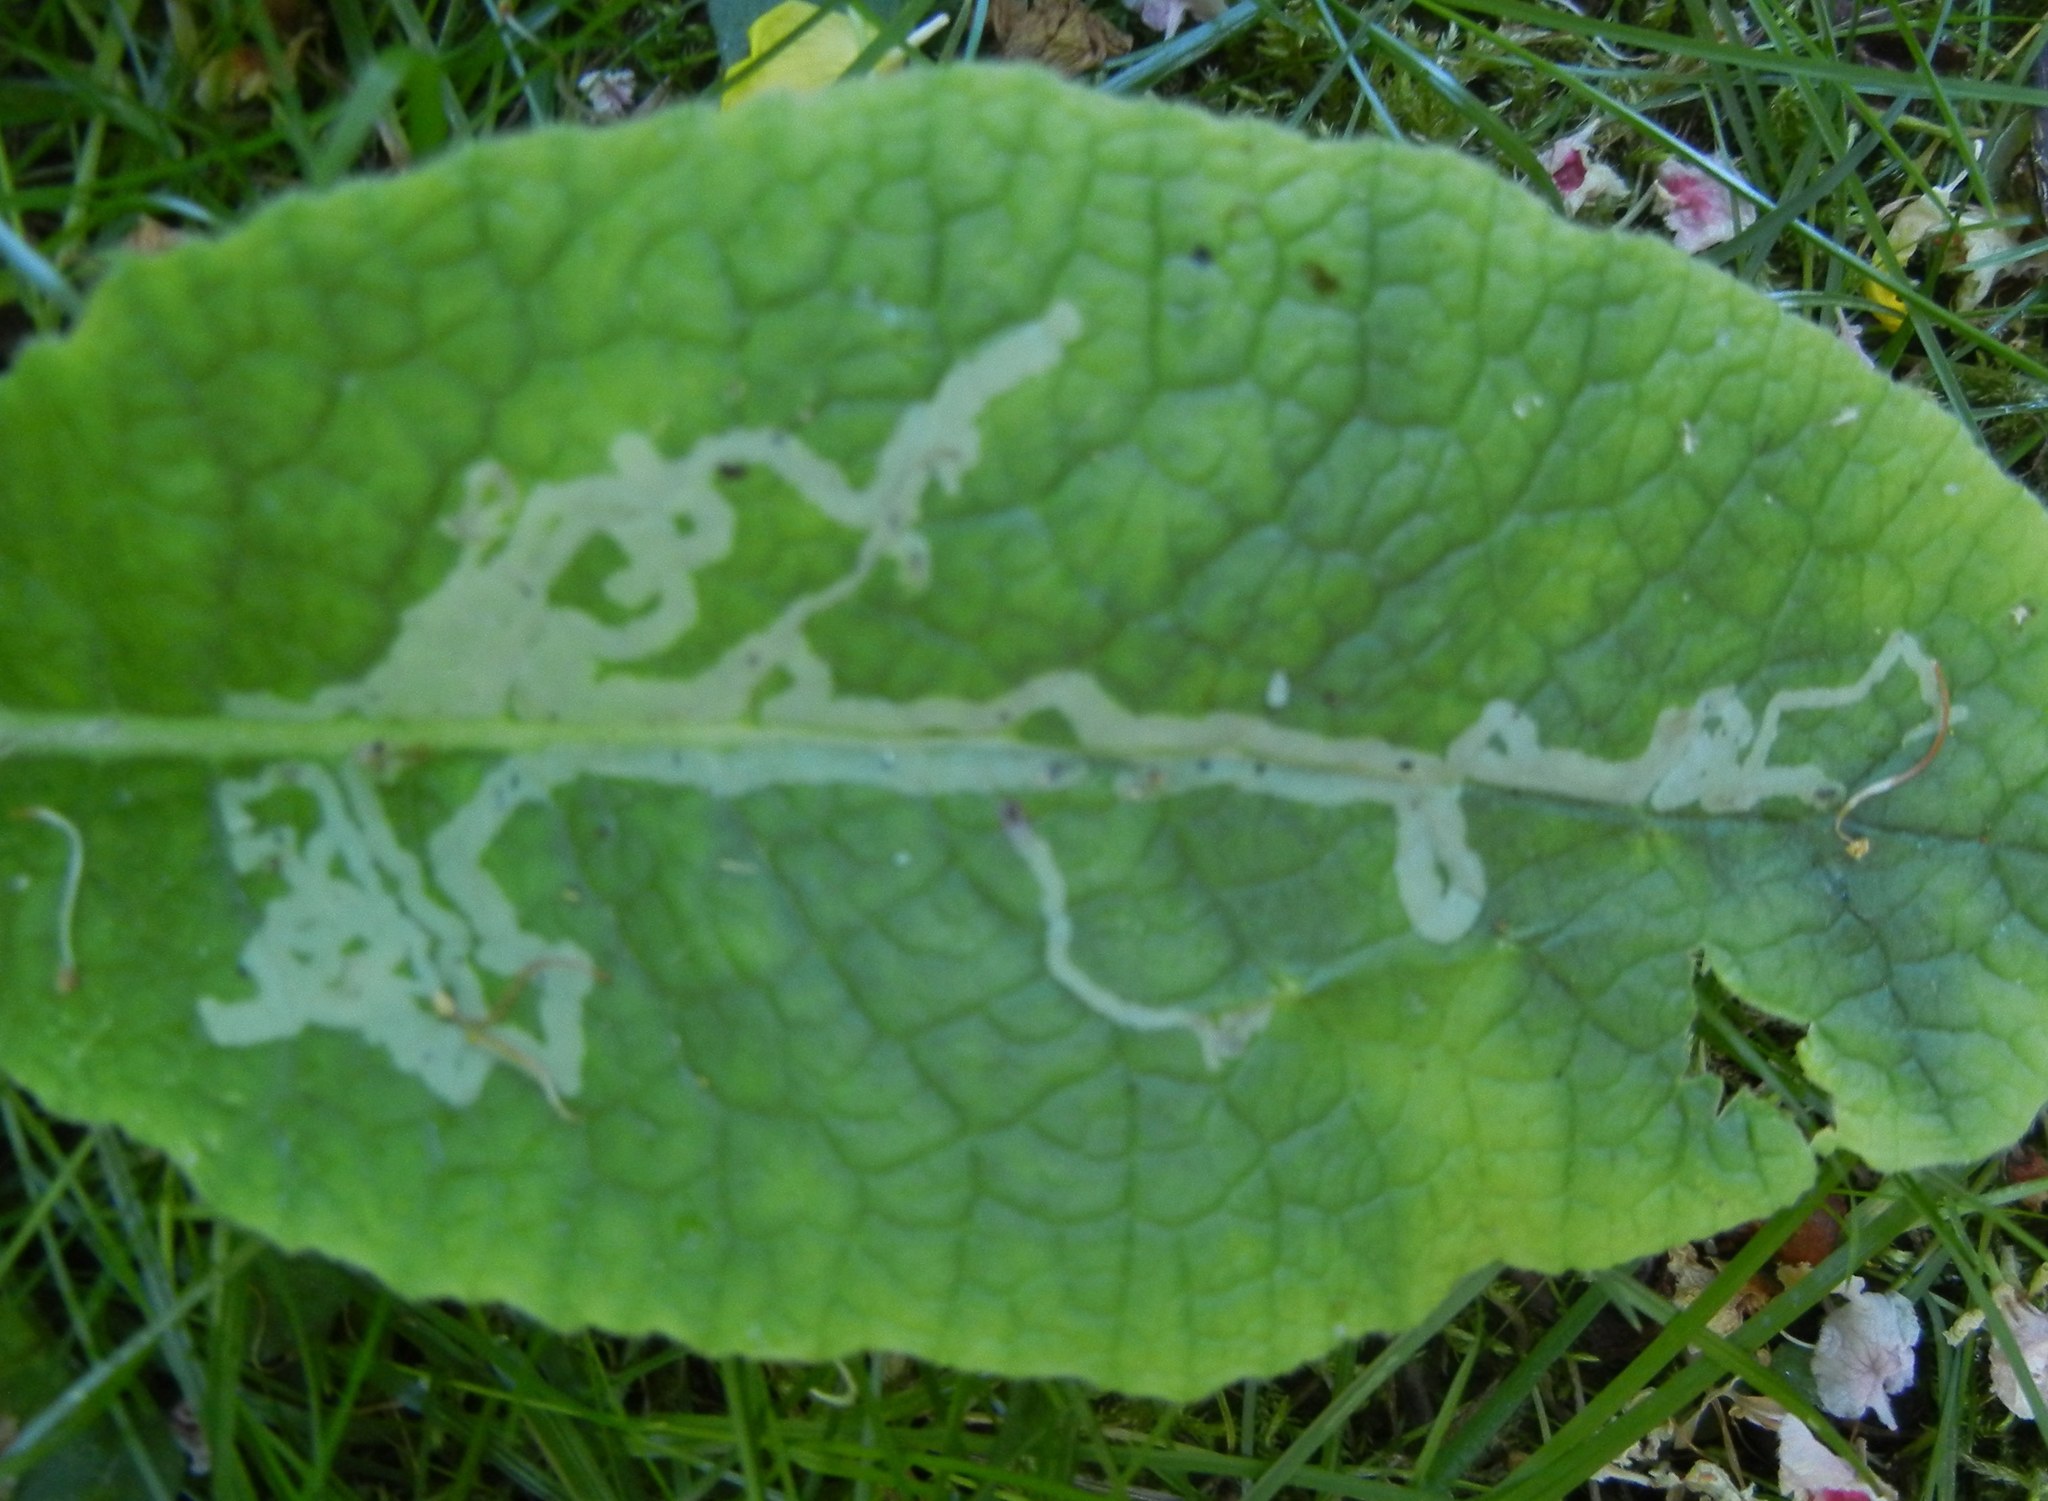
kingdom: Animalia
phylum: Arthropoda
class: Insecta
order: Diptera
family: Agromyzidae
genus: Phytomyza
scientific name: Phytomyza primulae
